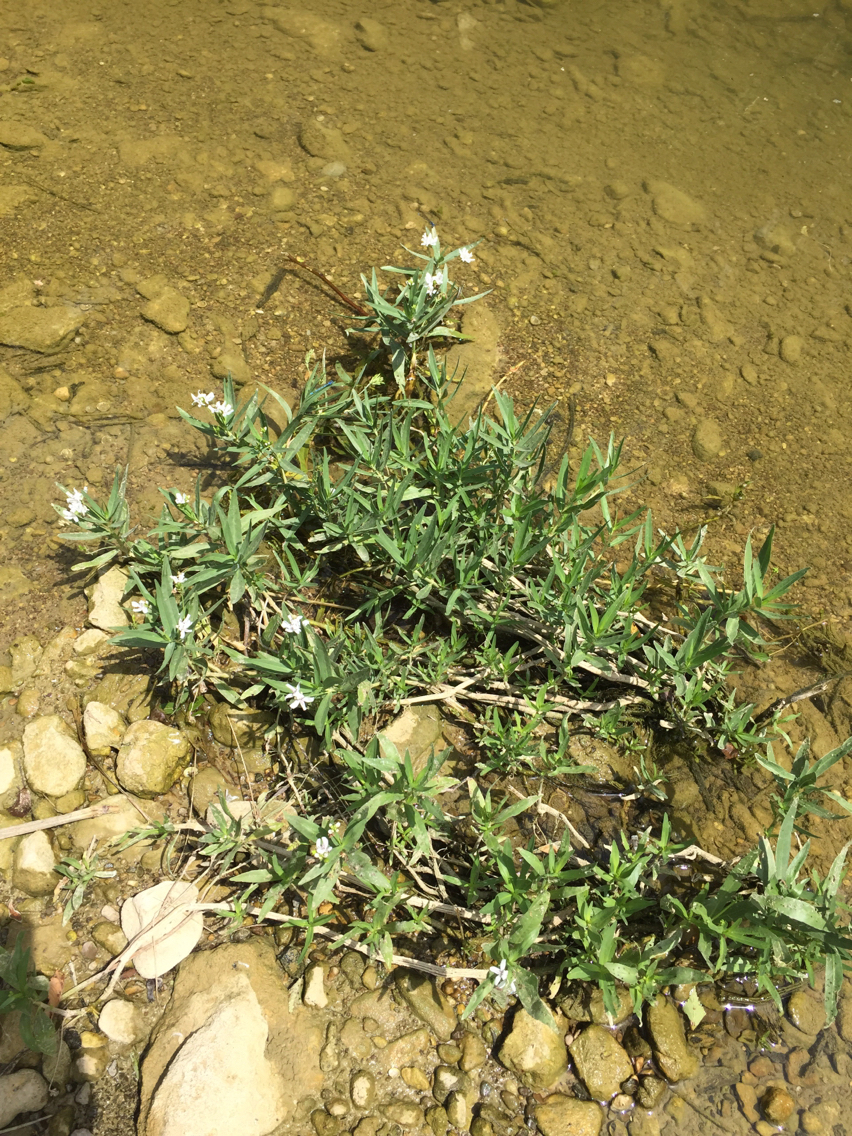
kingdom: Plantae
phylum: Tracheophyta
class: Magnoliopsida
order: Lamiales
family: Acanthaceae
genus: Dianthera
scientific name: Dianthera americana
